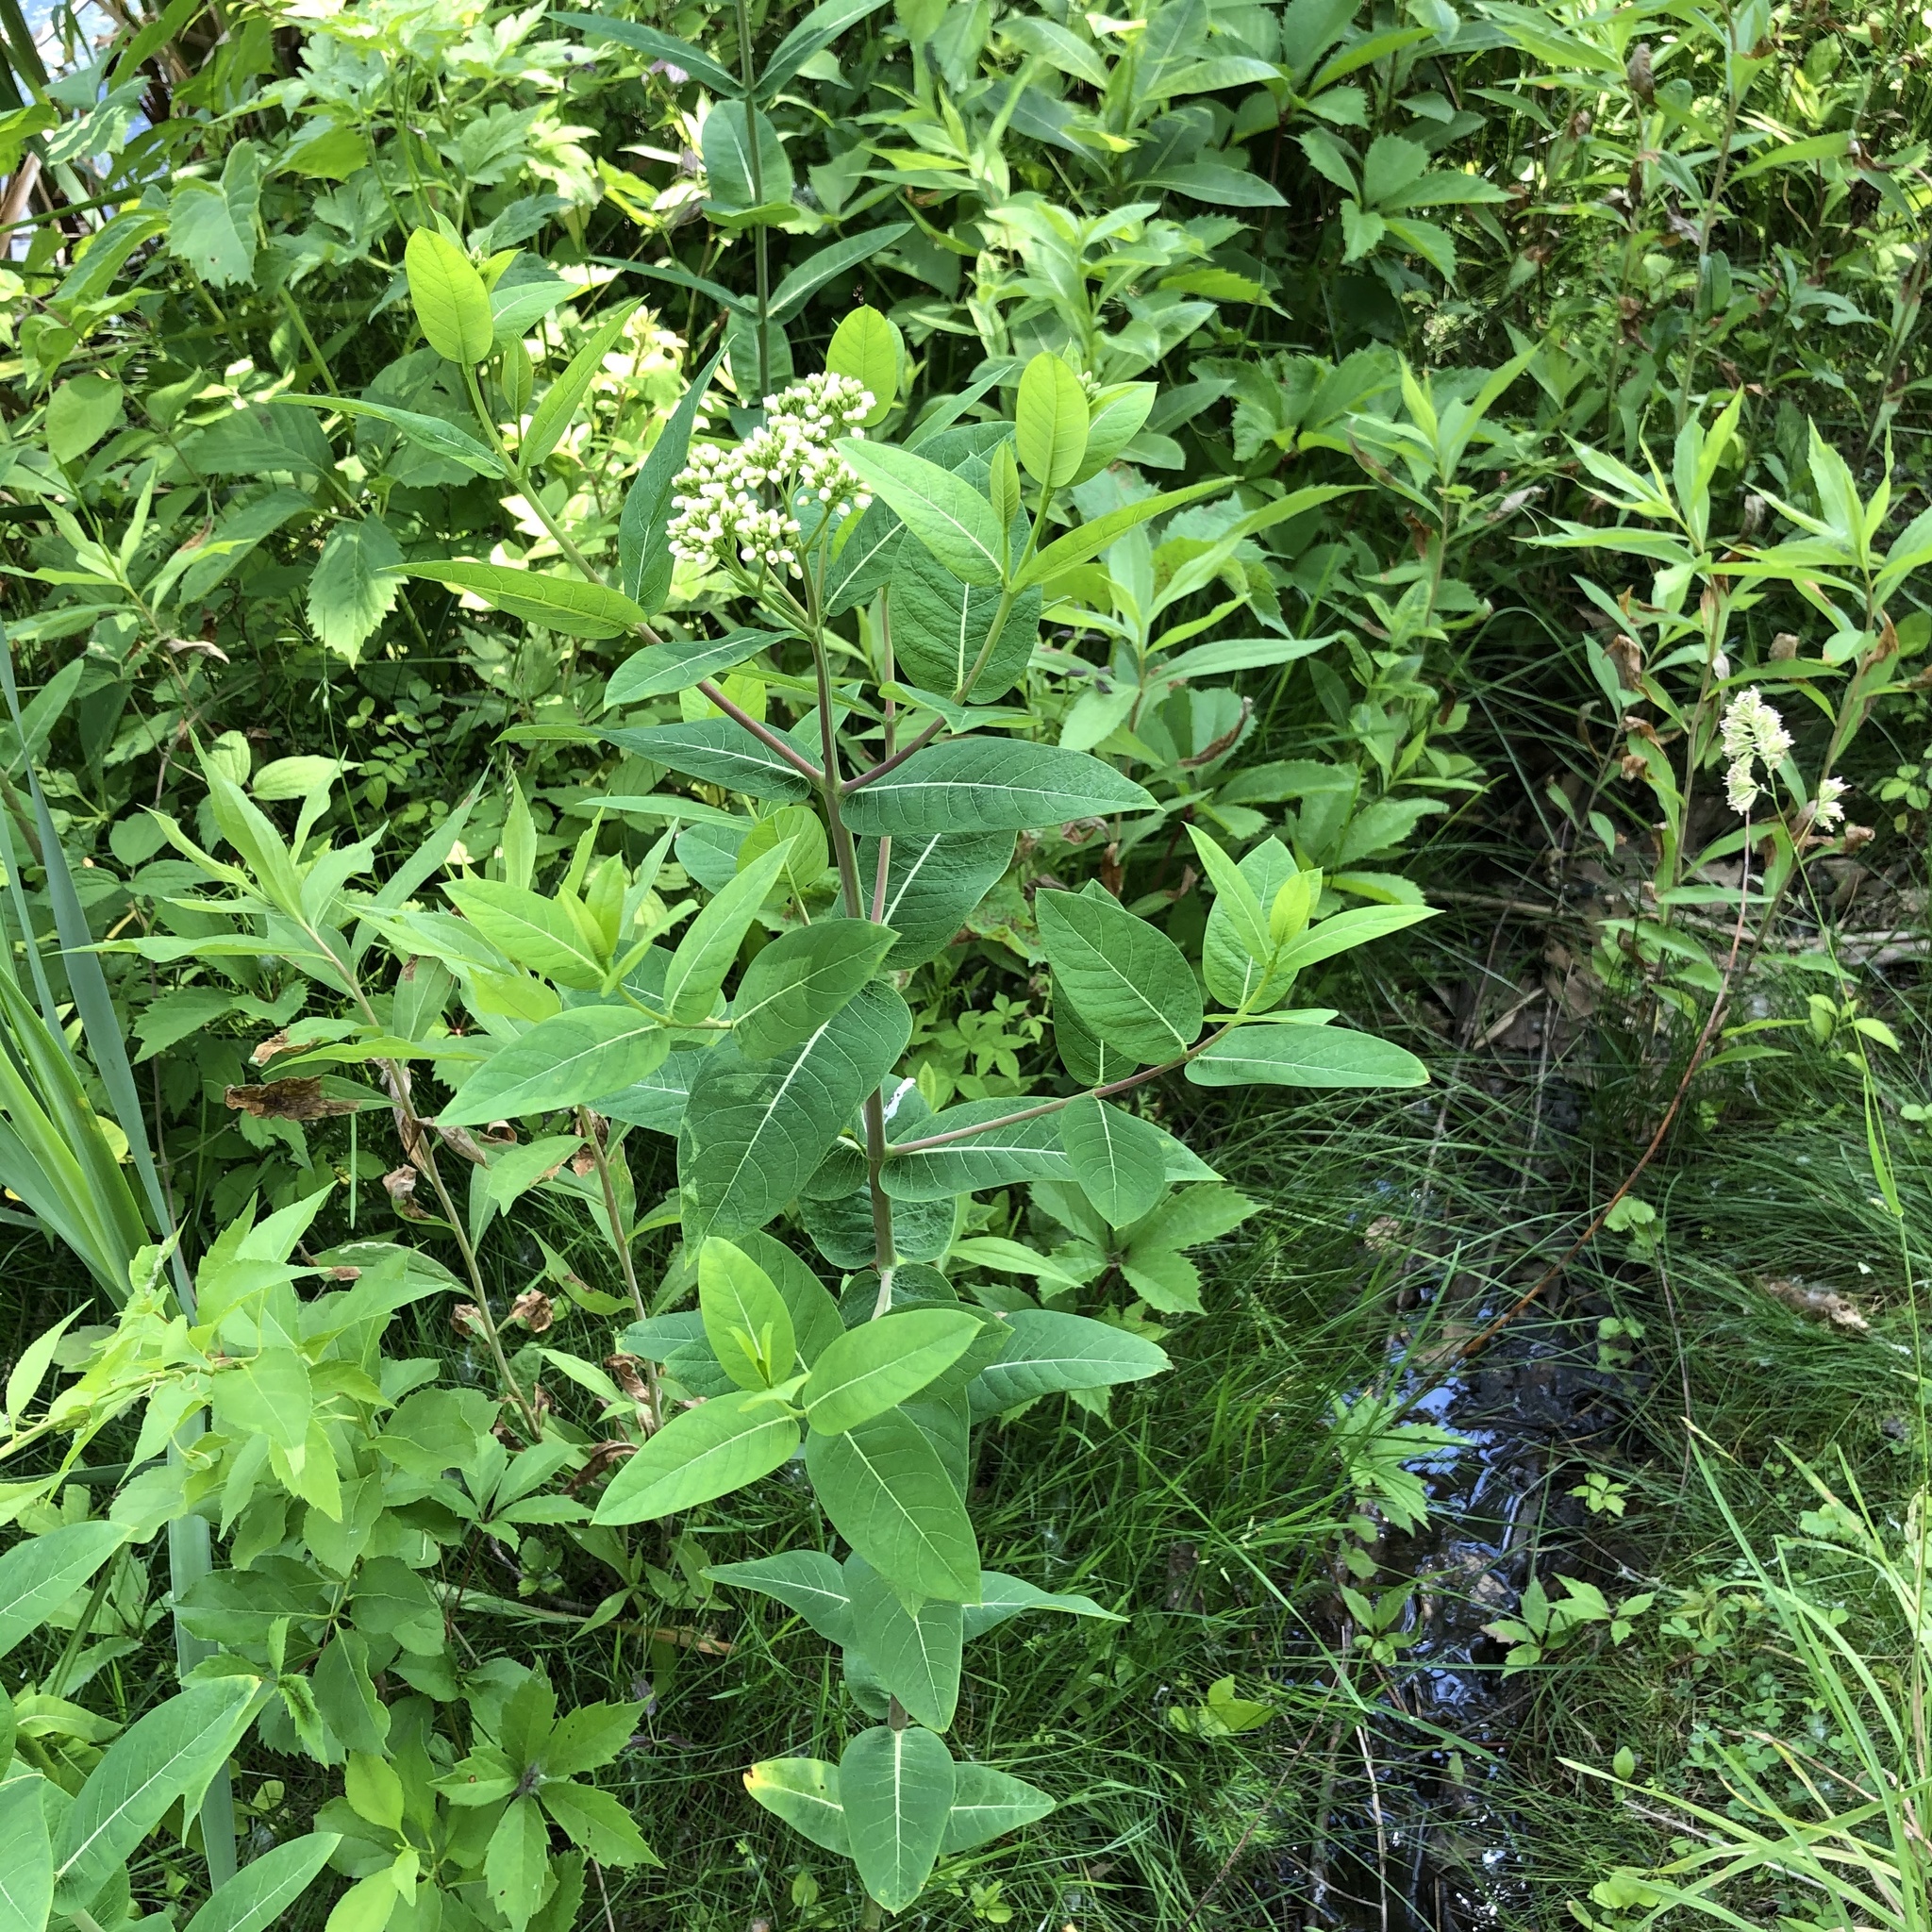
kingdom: Plantae
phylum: Tracheophyta
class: Magnoliopsida
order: Gentianales
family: Apocynaceae
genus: Apocynum
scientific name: Apocynum cannabinum
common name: Hemp dogbane
